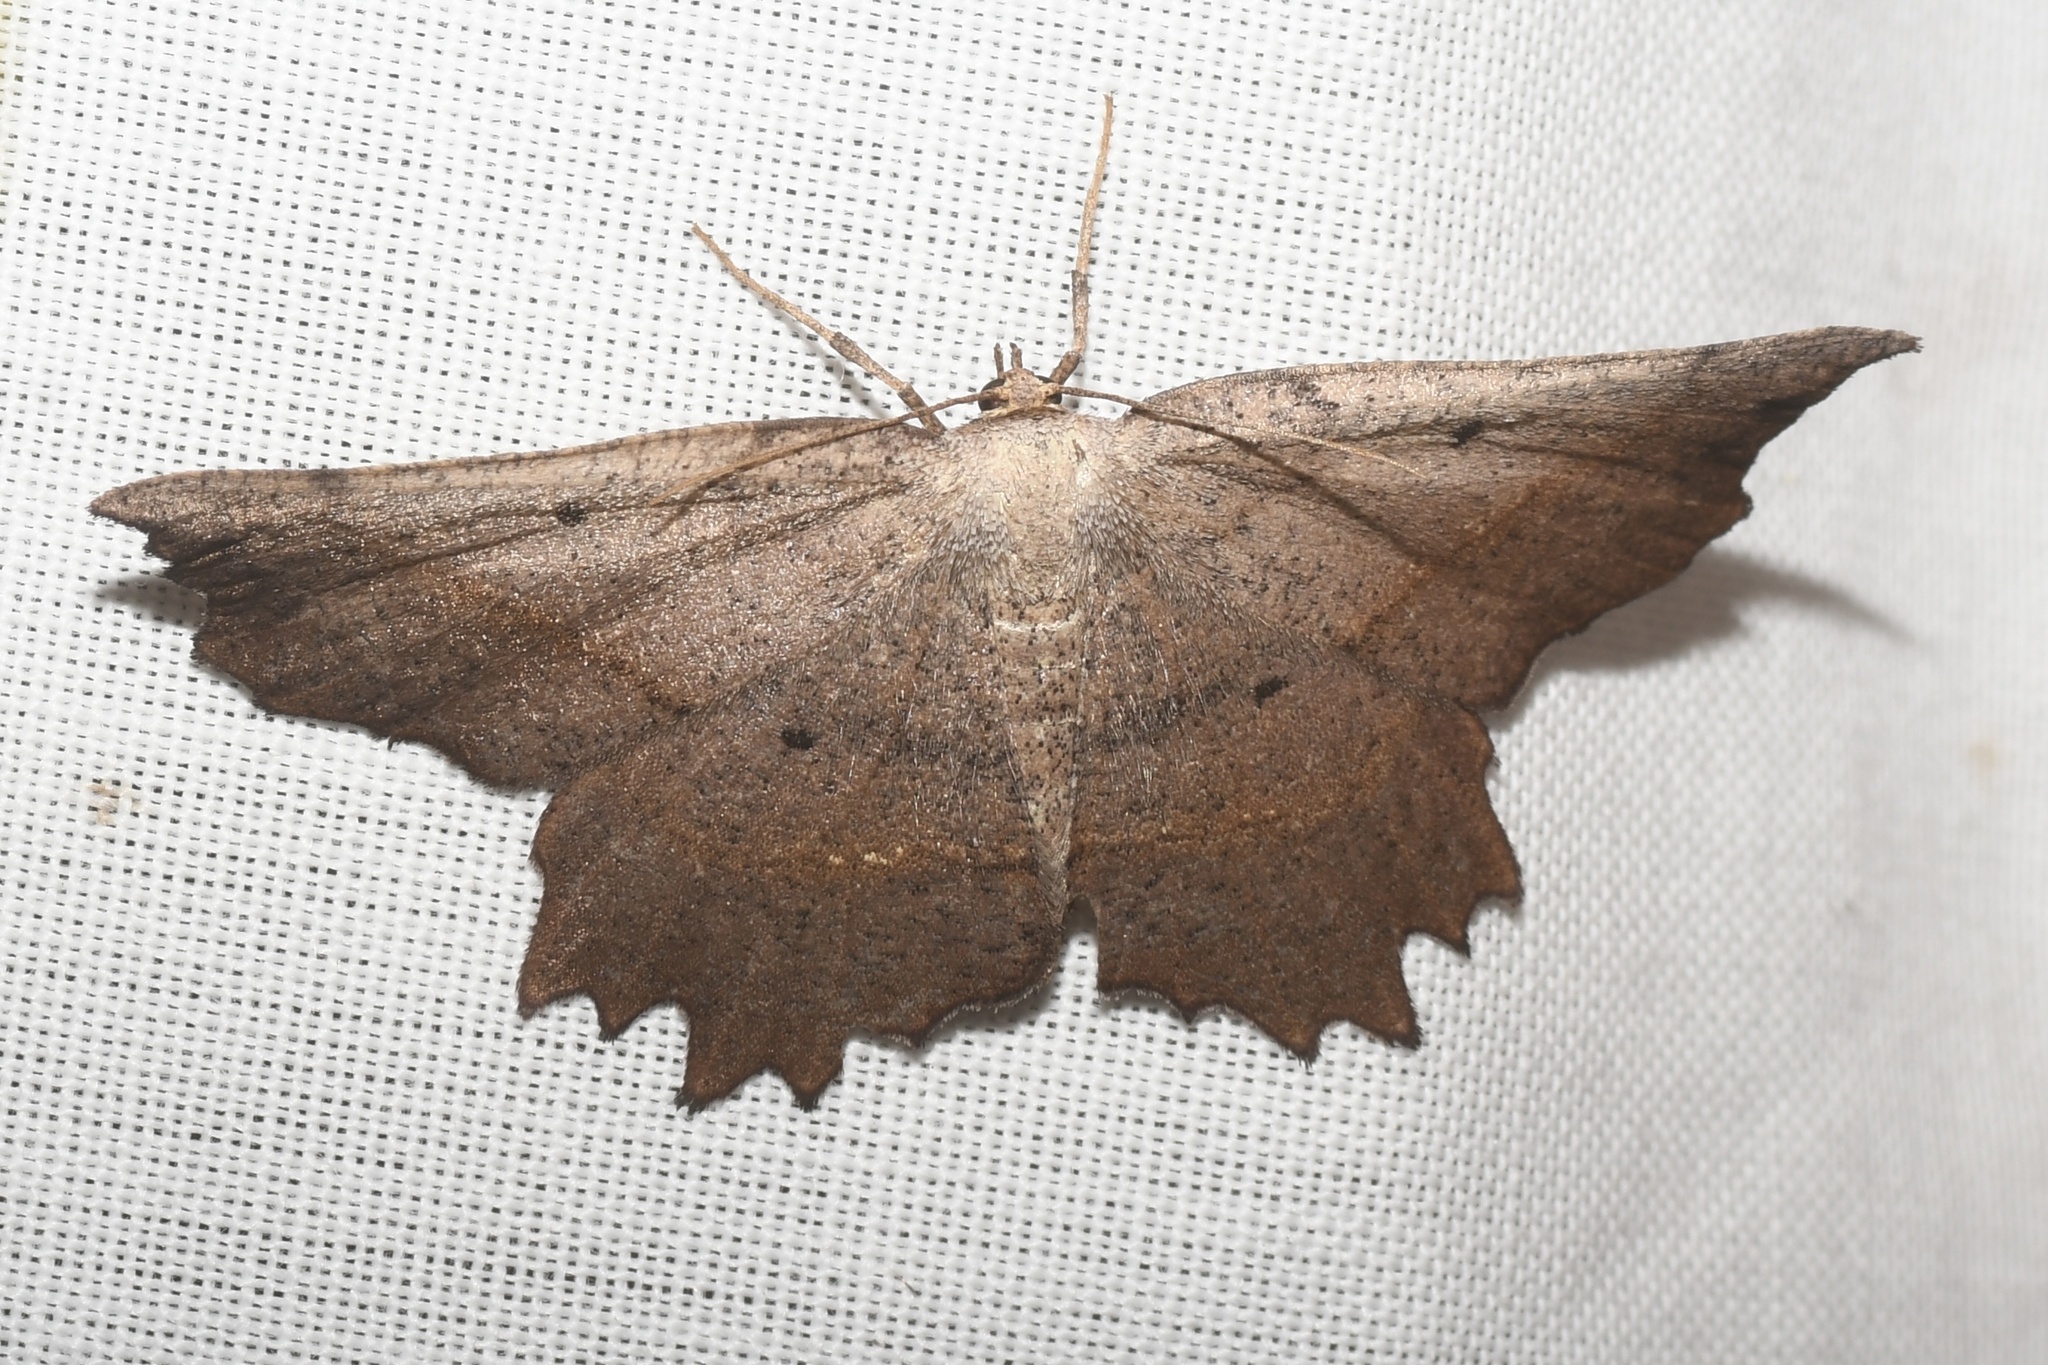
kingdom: Animalia
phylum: Arthropoda
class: Insecta
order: Lepidoptera
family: Geometridae
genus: Euchlaena
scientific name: Euchlaena muzaria
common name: Muzaria euchlaena
